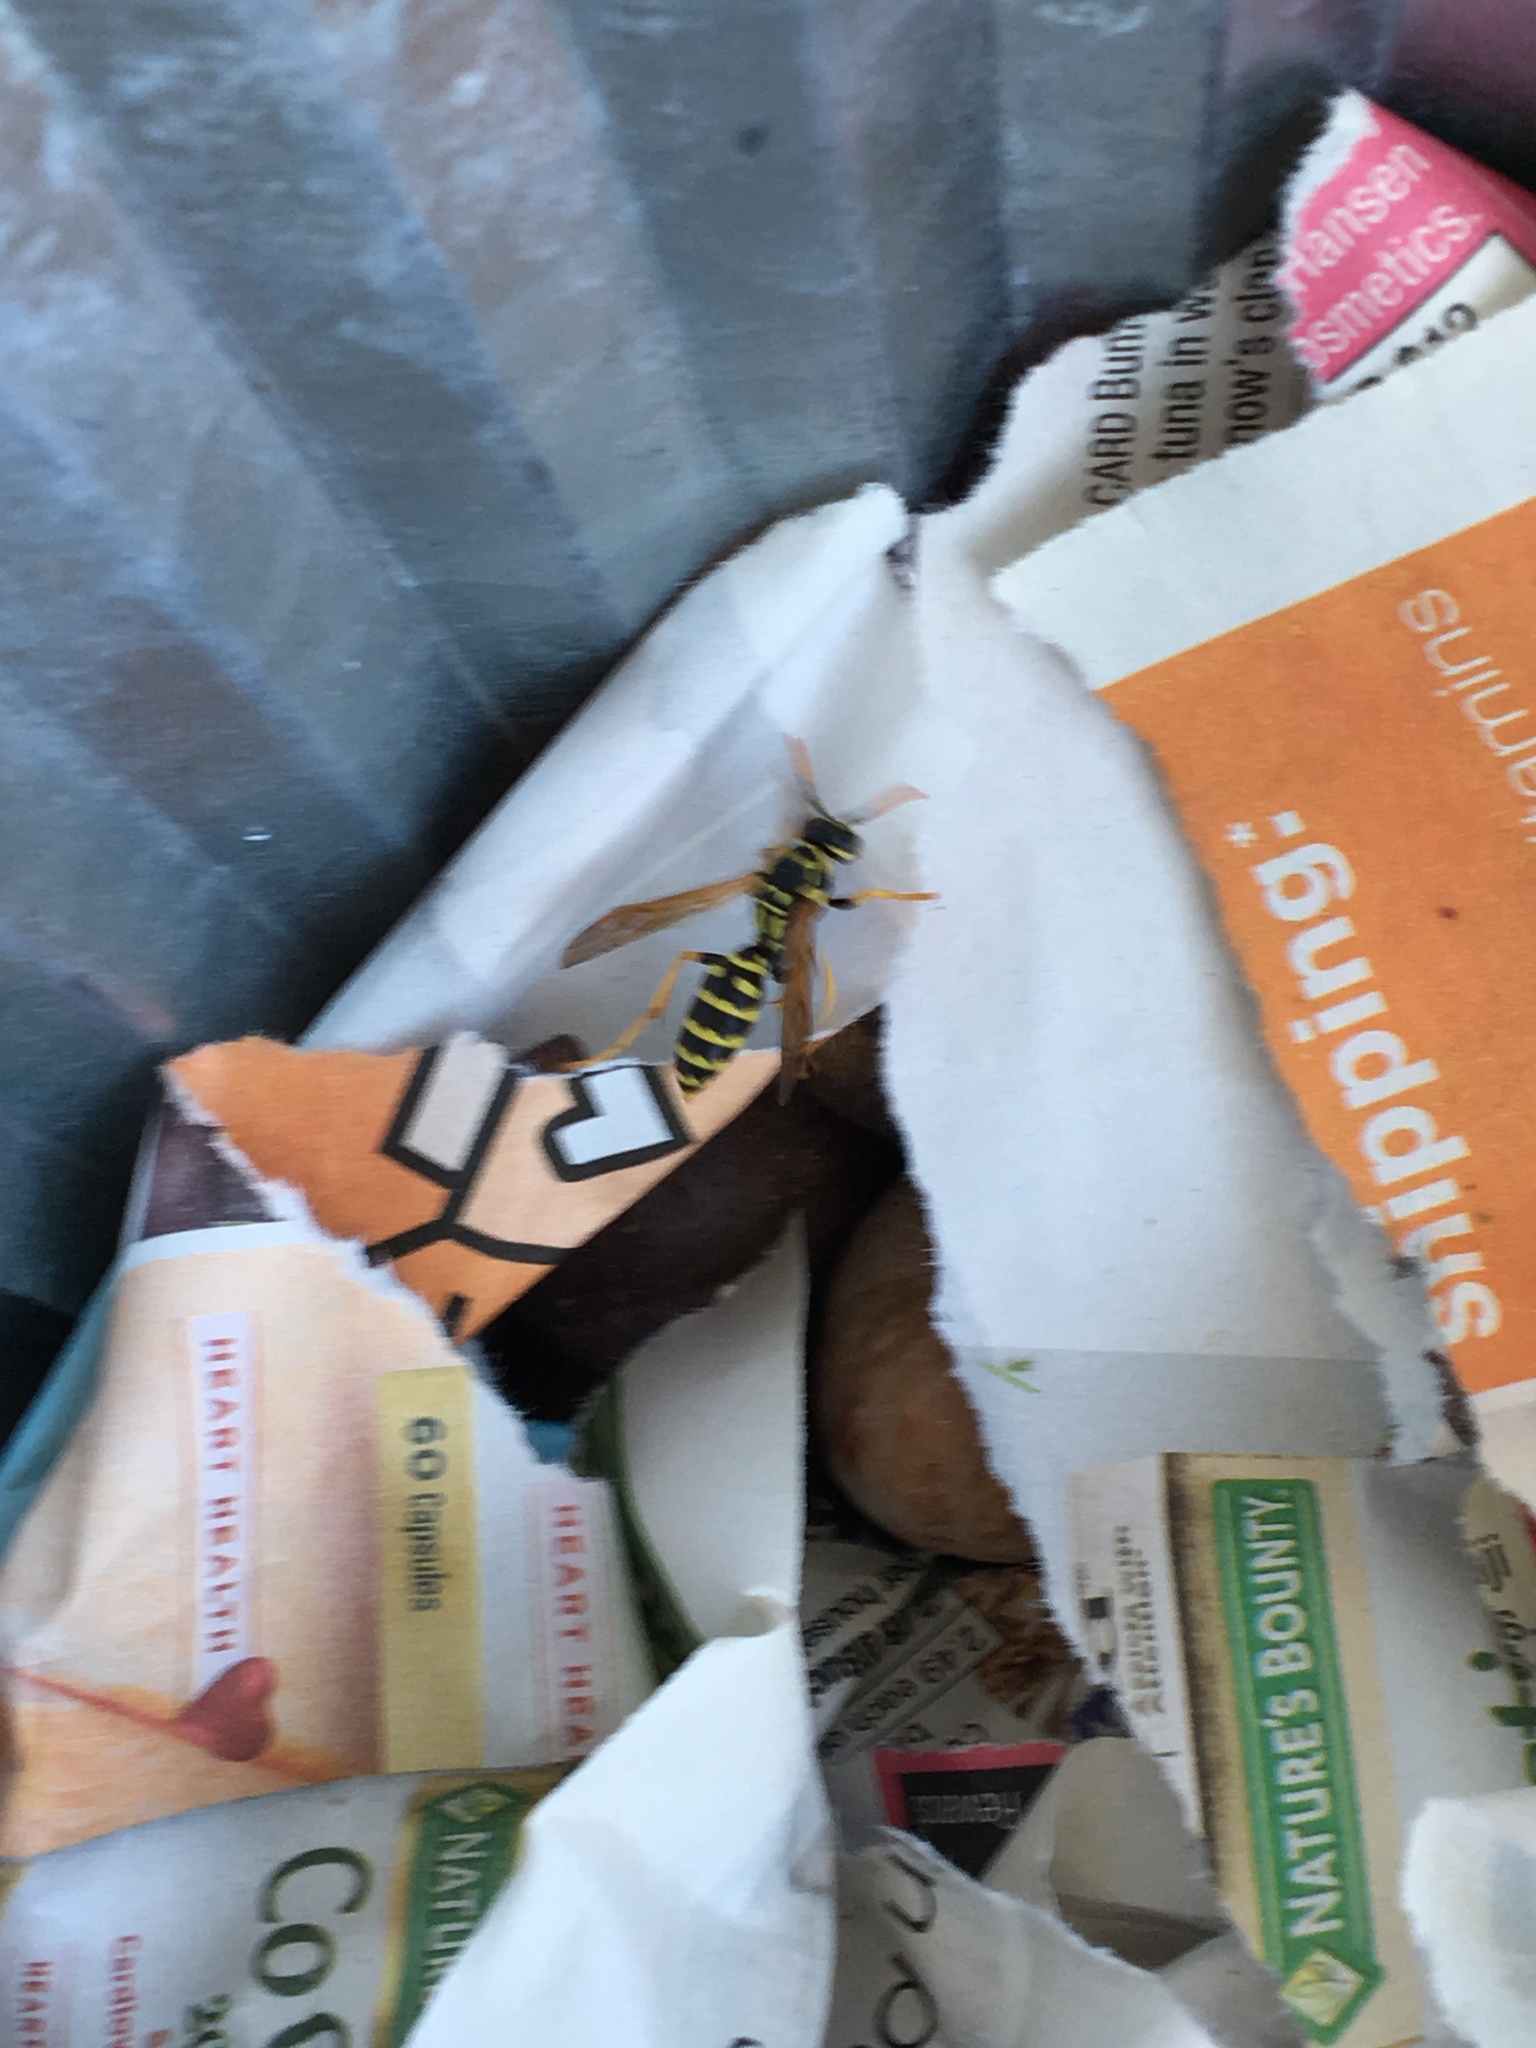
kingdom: Animalia
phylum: Arthropoda
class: Insecta
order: Hymenoptera
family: Eumenidae
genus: Polistes
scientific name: Polistes dominula
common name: Paper wasp
